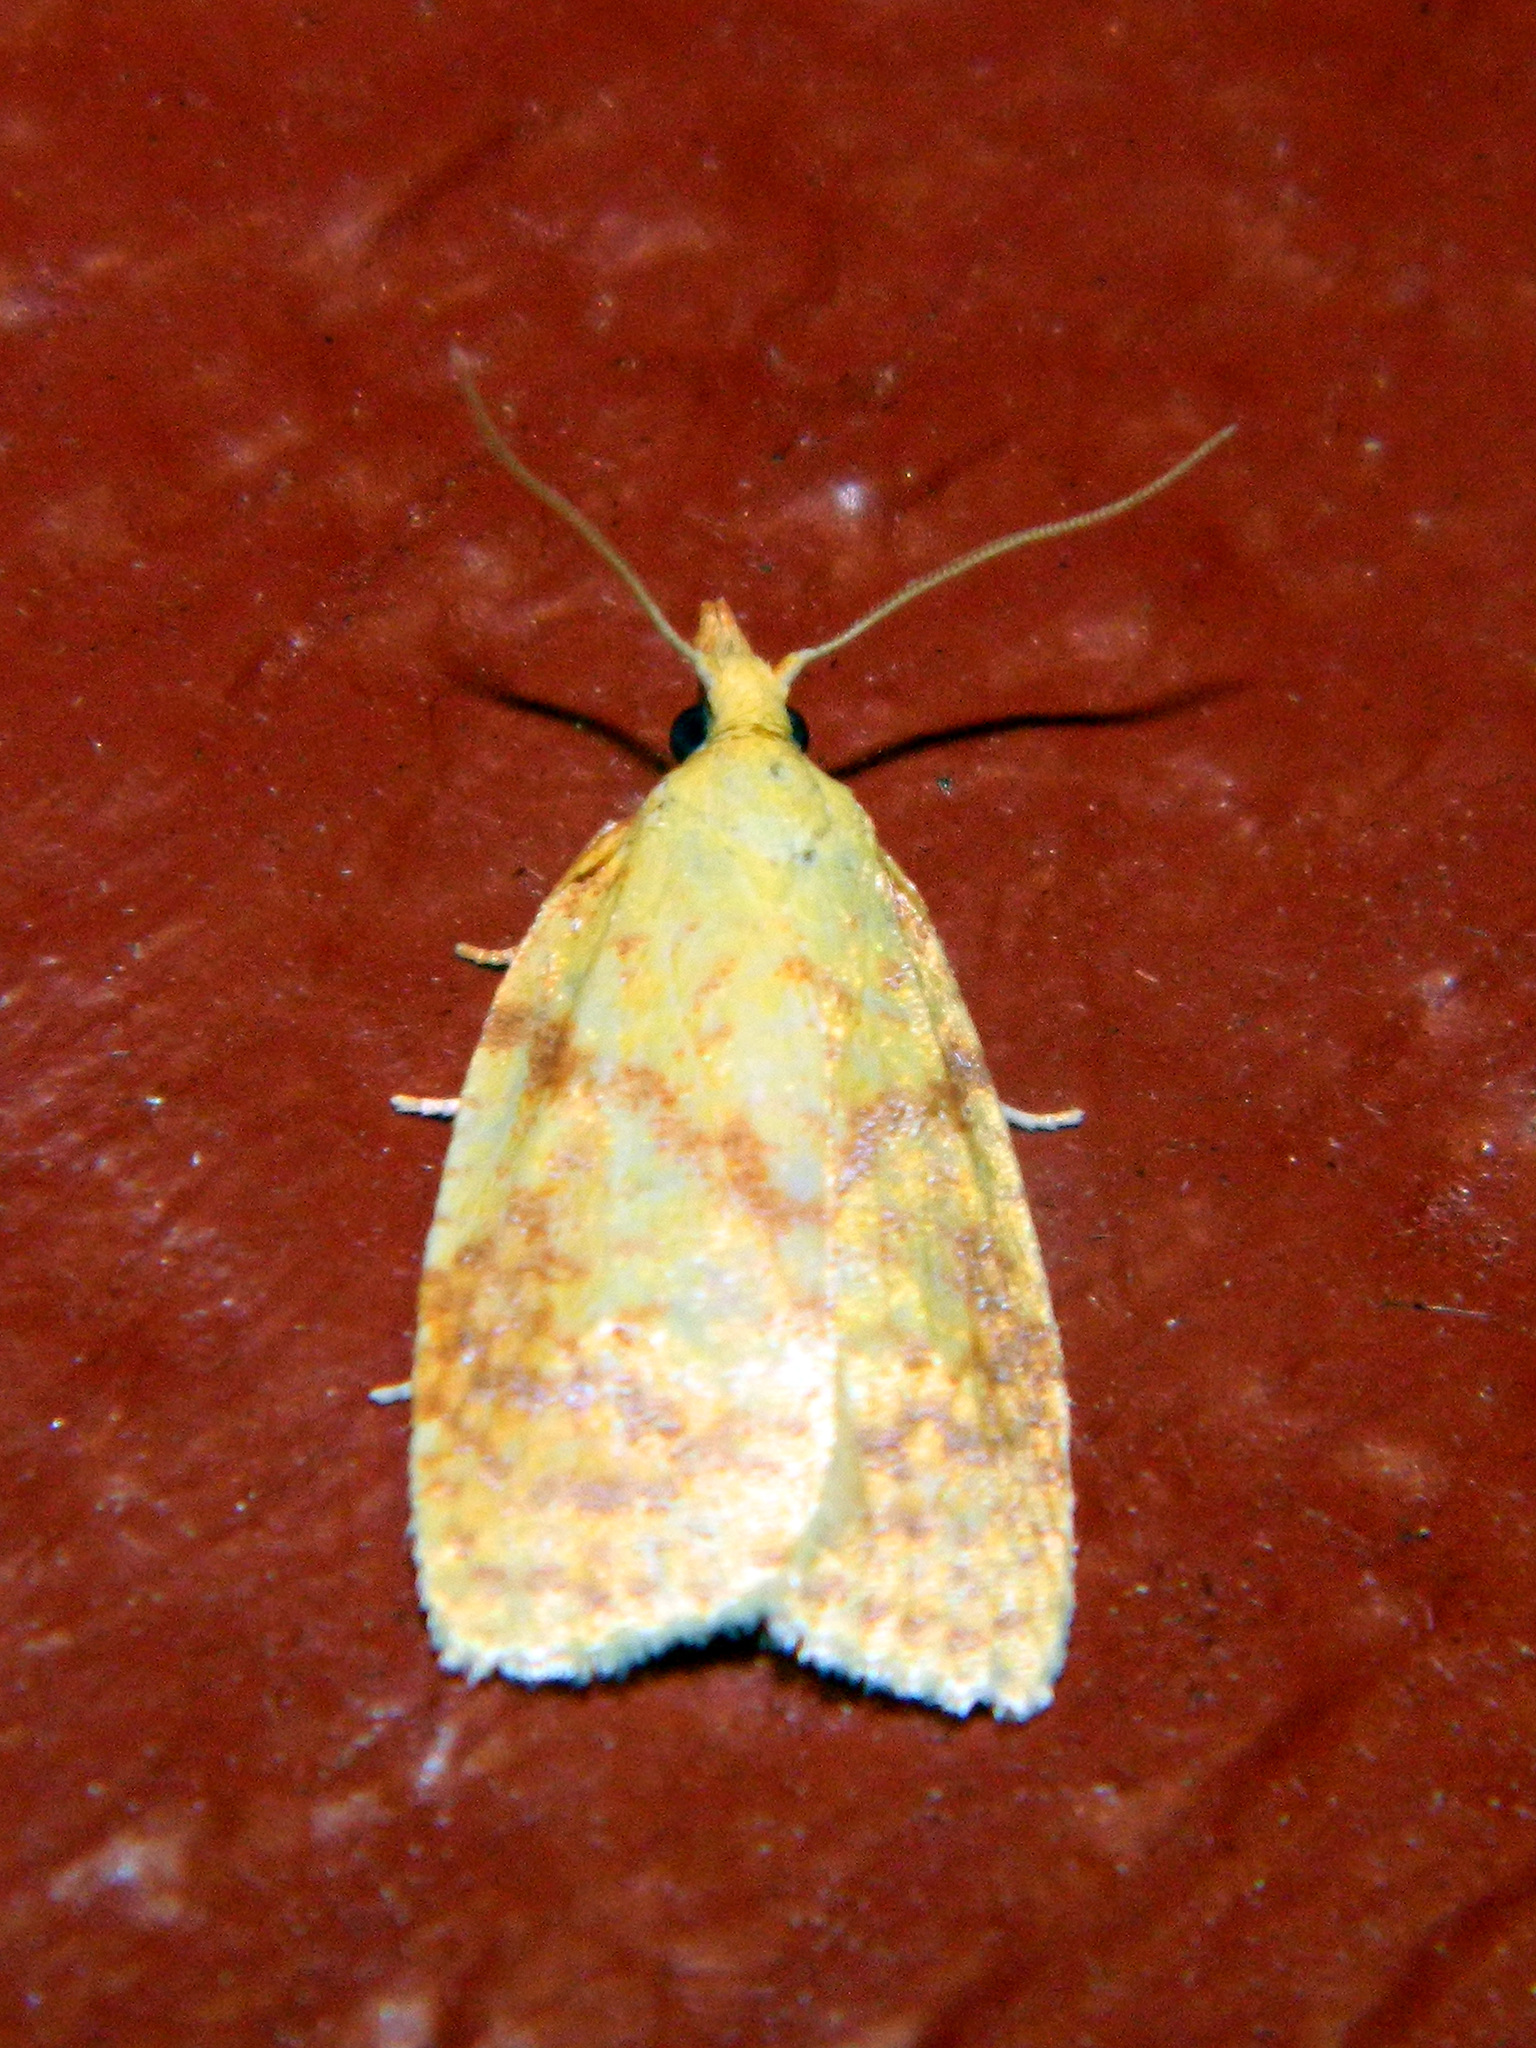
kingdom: Animalia
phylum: Arthropoda
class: Insecta
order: Lepidoptera
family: Tortricidae
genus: Cenopis
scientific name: Cenopis pettitana
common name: Maple-basswood leafroller moth
